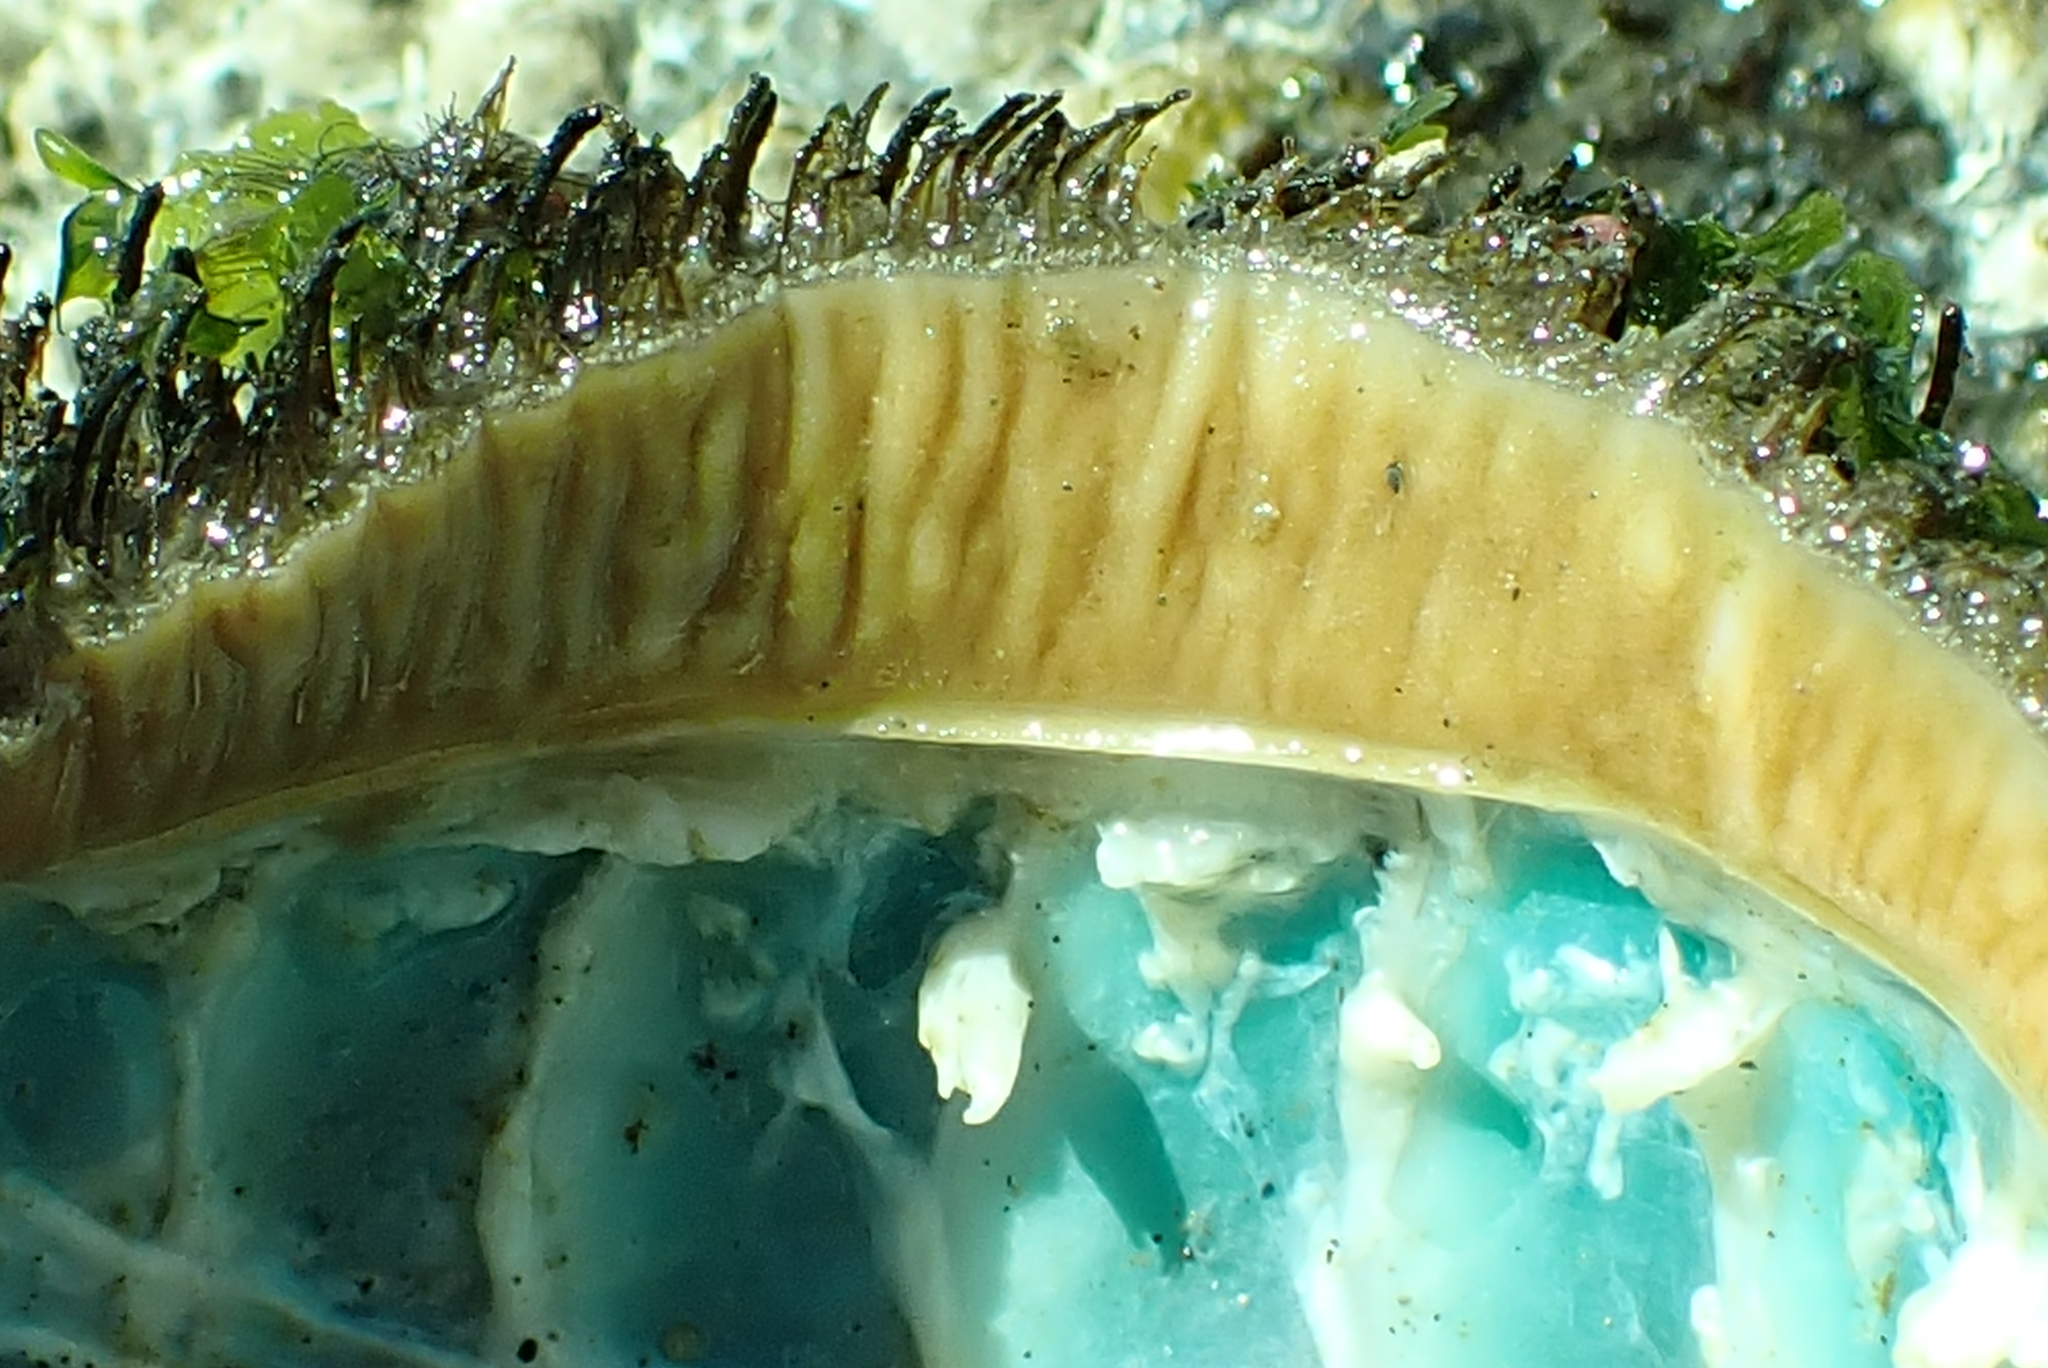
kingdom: Animalia
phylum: Mollusca
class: Polyplacophora
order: Chitonida
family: Mopaliidae
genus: Mopalia
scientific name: Mopalia muscosa
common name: Mossy chiton
